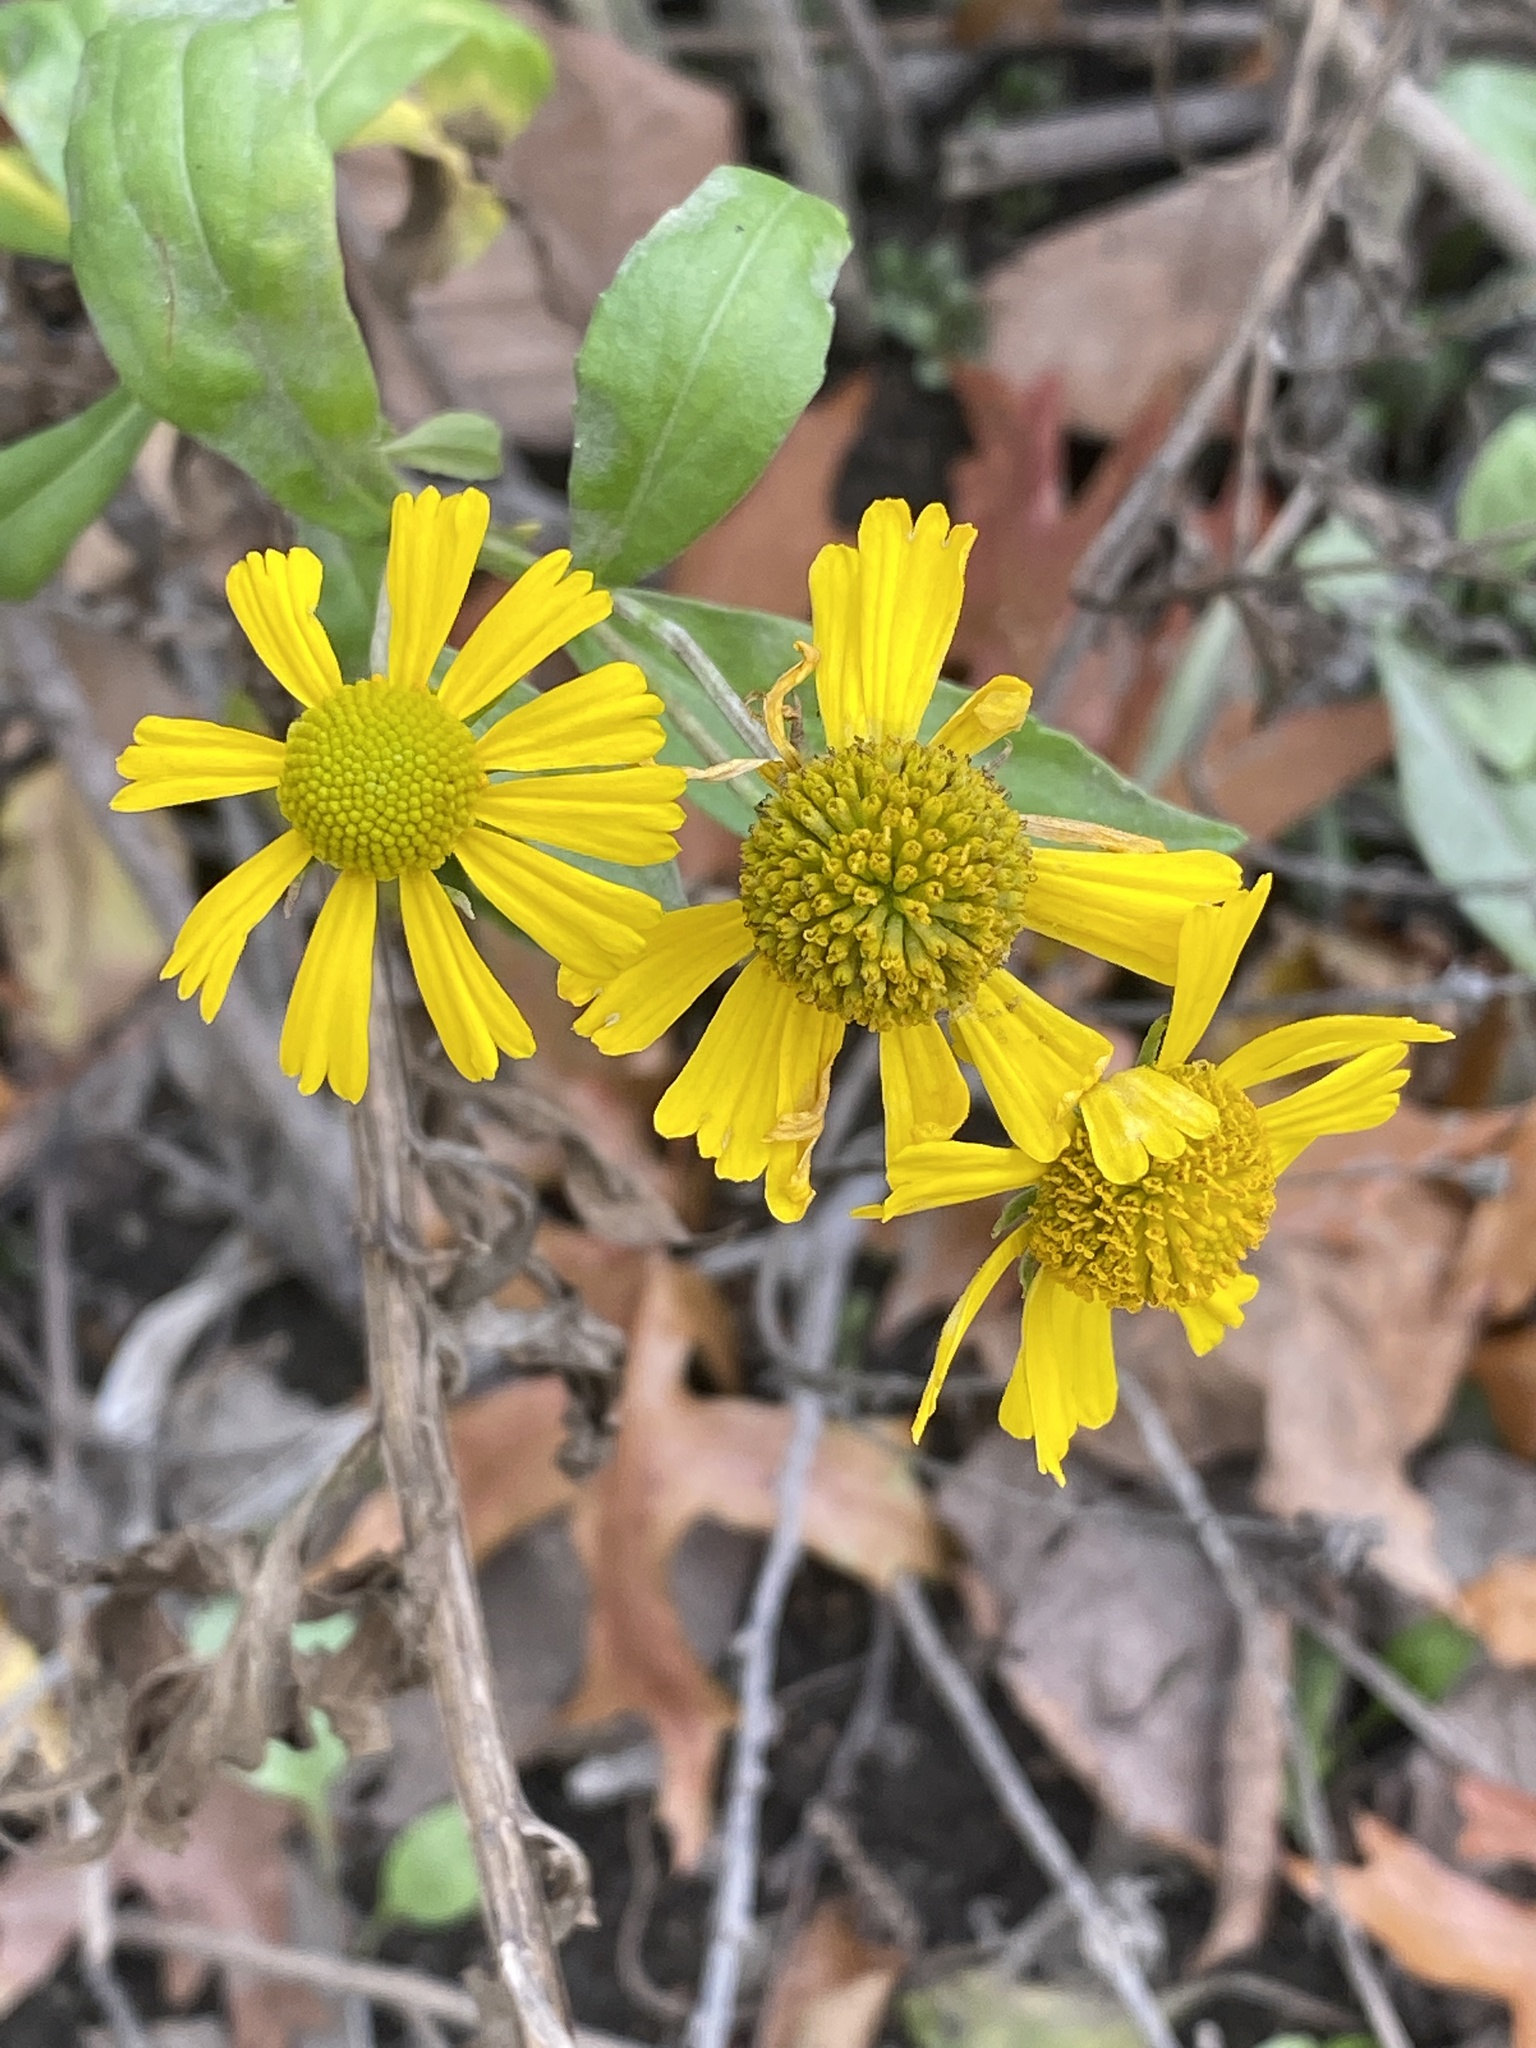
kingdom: Plantae
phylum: Tracheophyta
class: Magnoliopsida
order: Asterales
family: Asteraceae
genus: Helenium
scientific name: Helenium autumnale
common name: Sneezeweed
